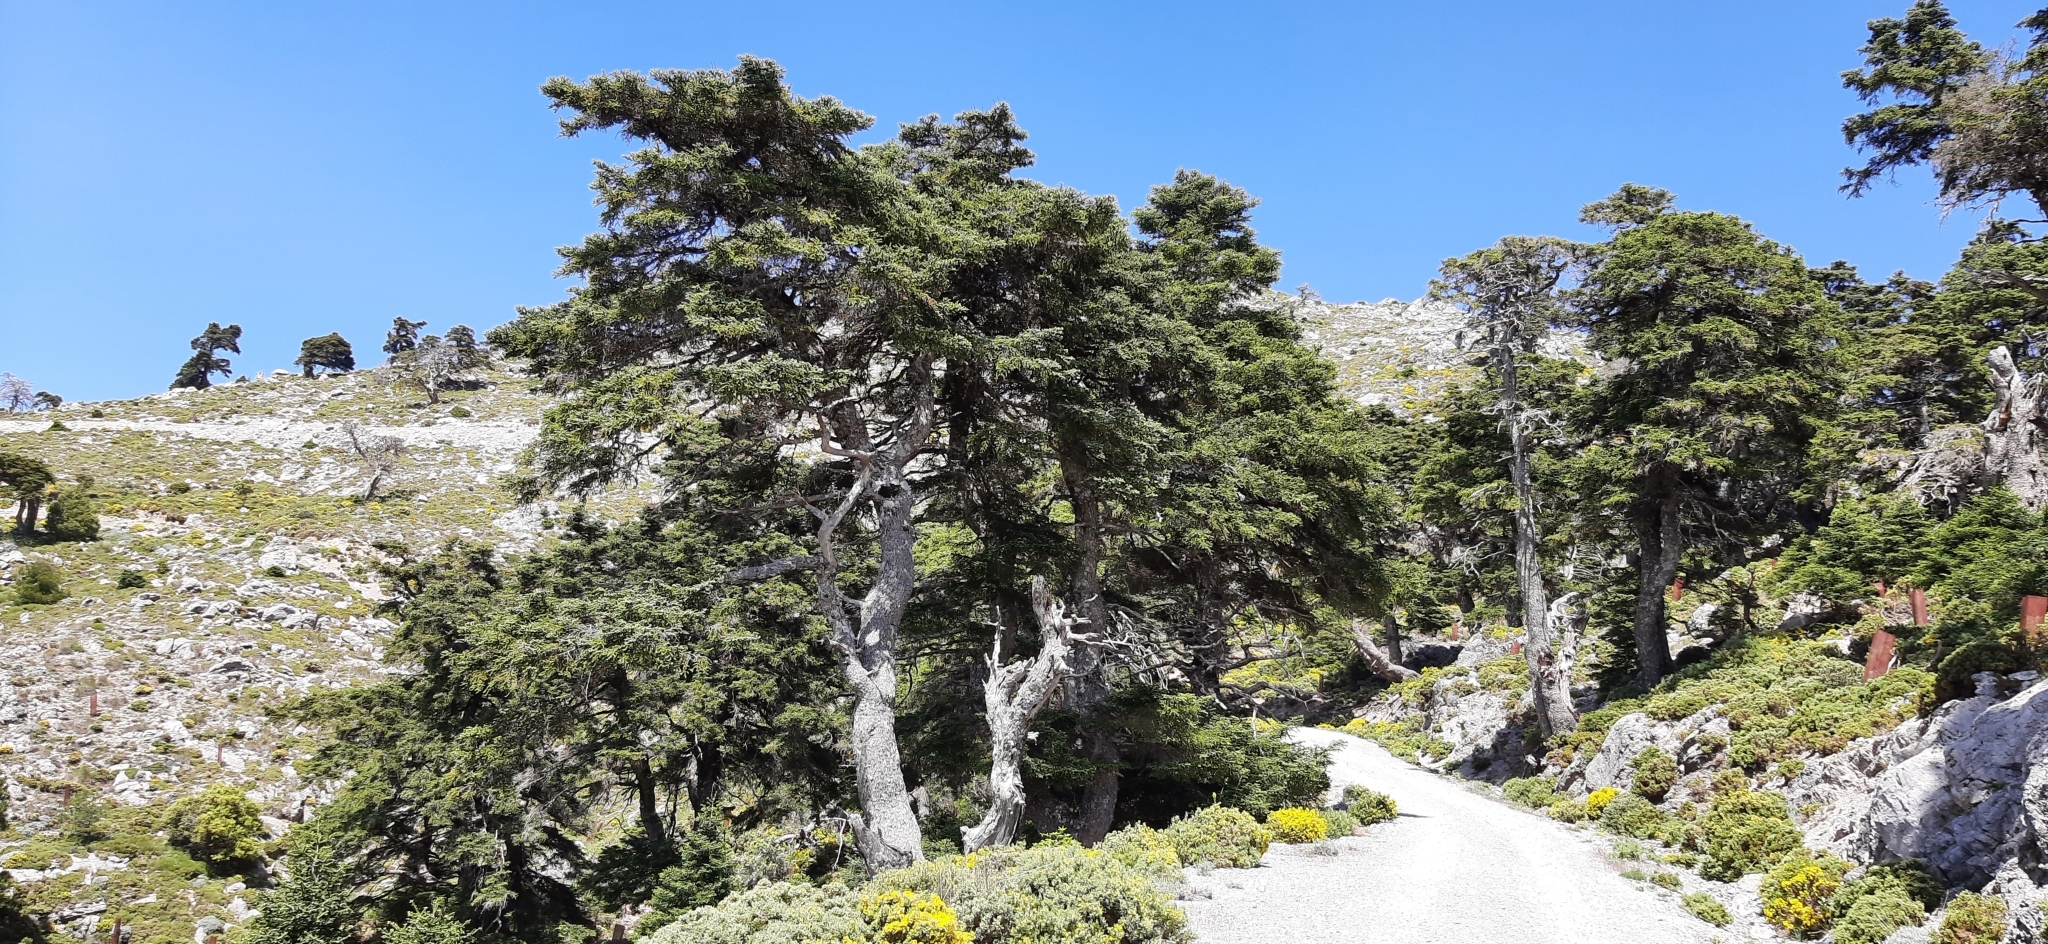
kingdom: Plantae
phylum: Tracheophyta
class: Pinopsida
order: Pinales
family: Pinaceae
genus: Abies
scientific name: Abies pinsapo
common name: Spanish fir
